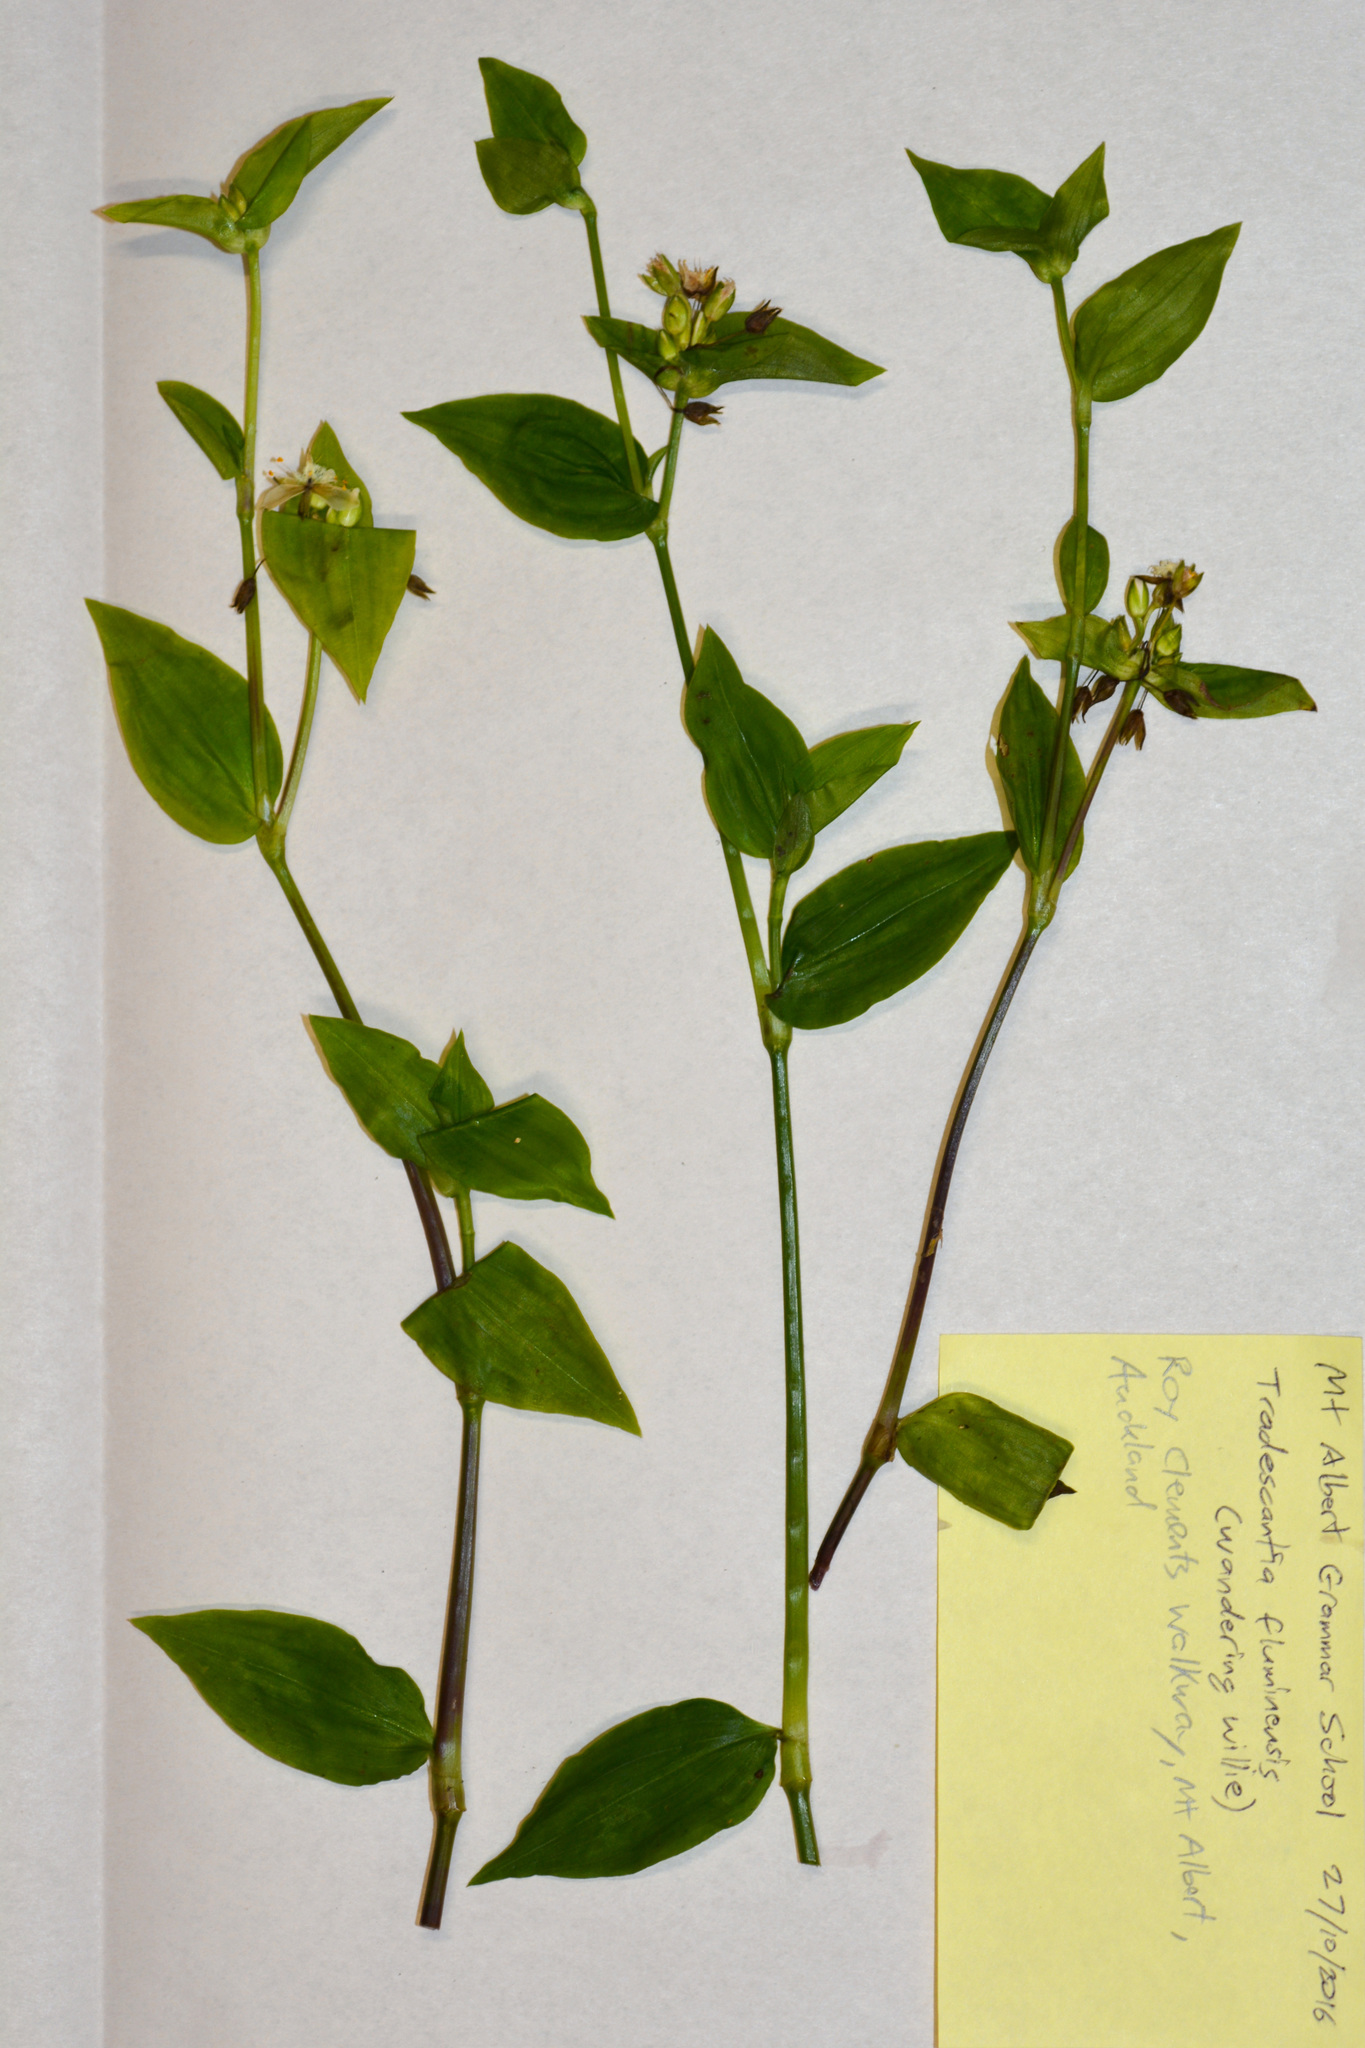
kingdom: Plantae
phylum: Tracheophyta
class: Liliopsida
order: Commelinales
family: Commelinaceae
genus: Tradescantia
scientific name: Tradescantia fluminensis
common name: Wandering-jew
